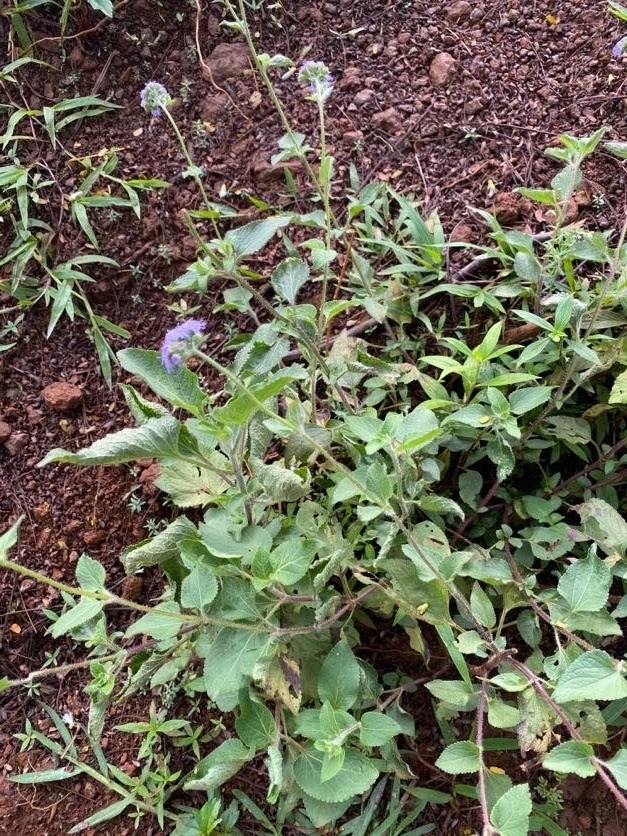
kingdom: Plantae
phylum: Tracheophyta
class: Magnoliopsida
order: Asterales
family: Asteraceae
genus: Ageratum
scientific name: Ageratum houstonianum
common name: Bluemink
